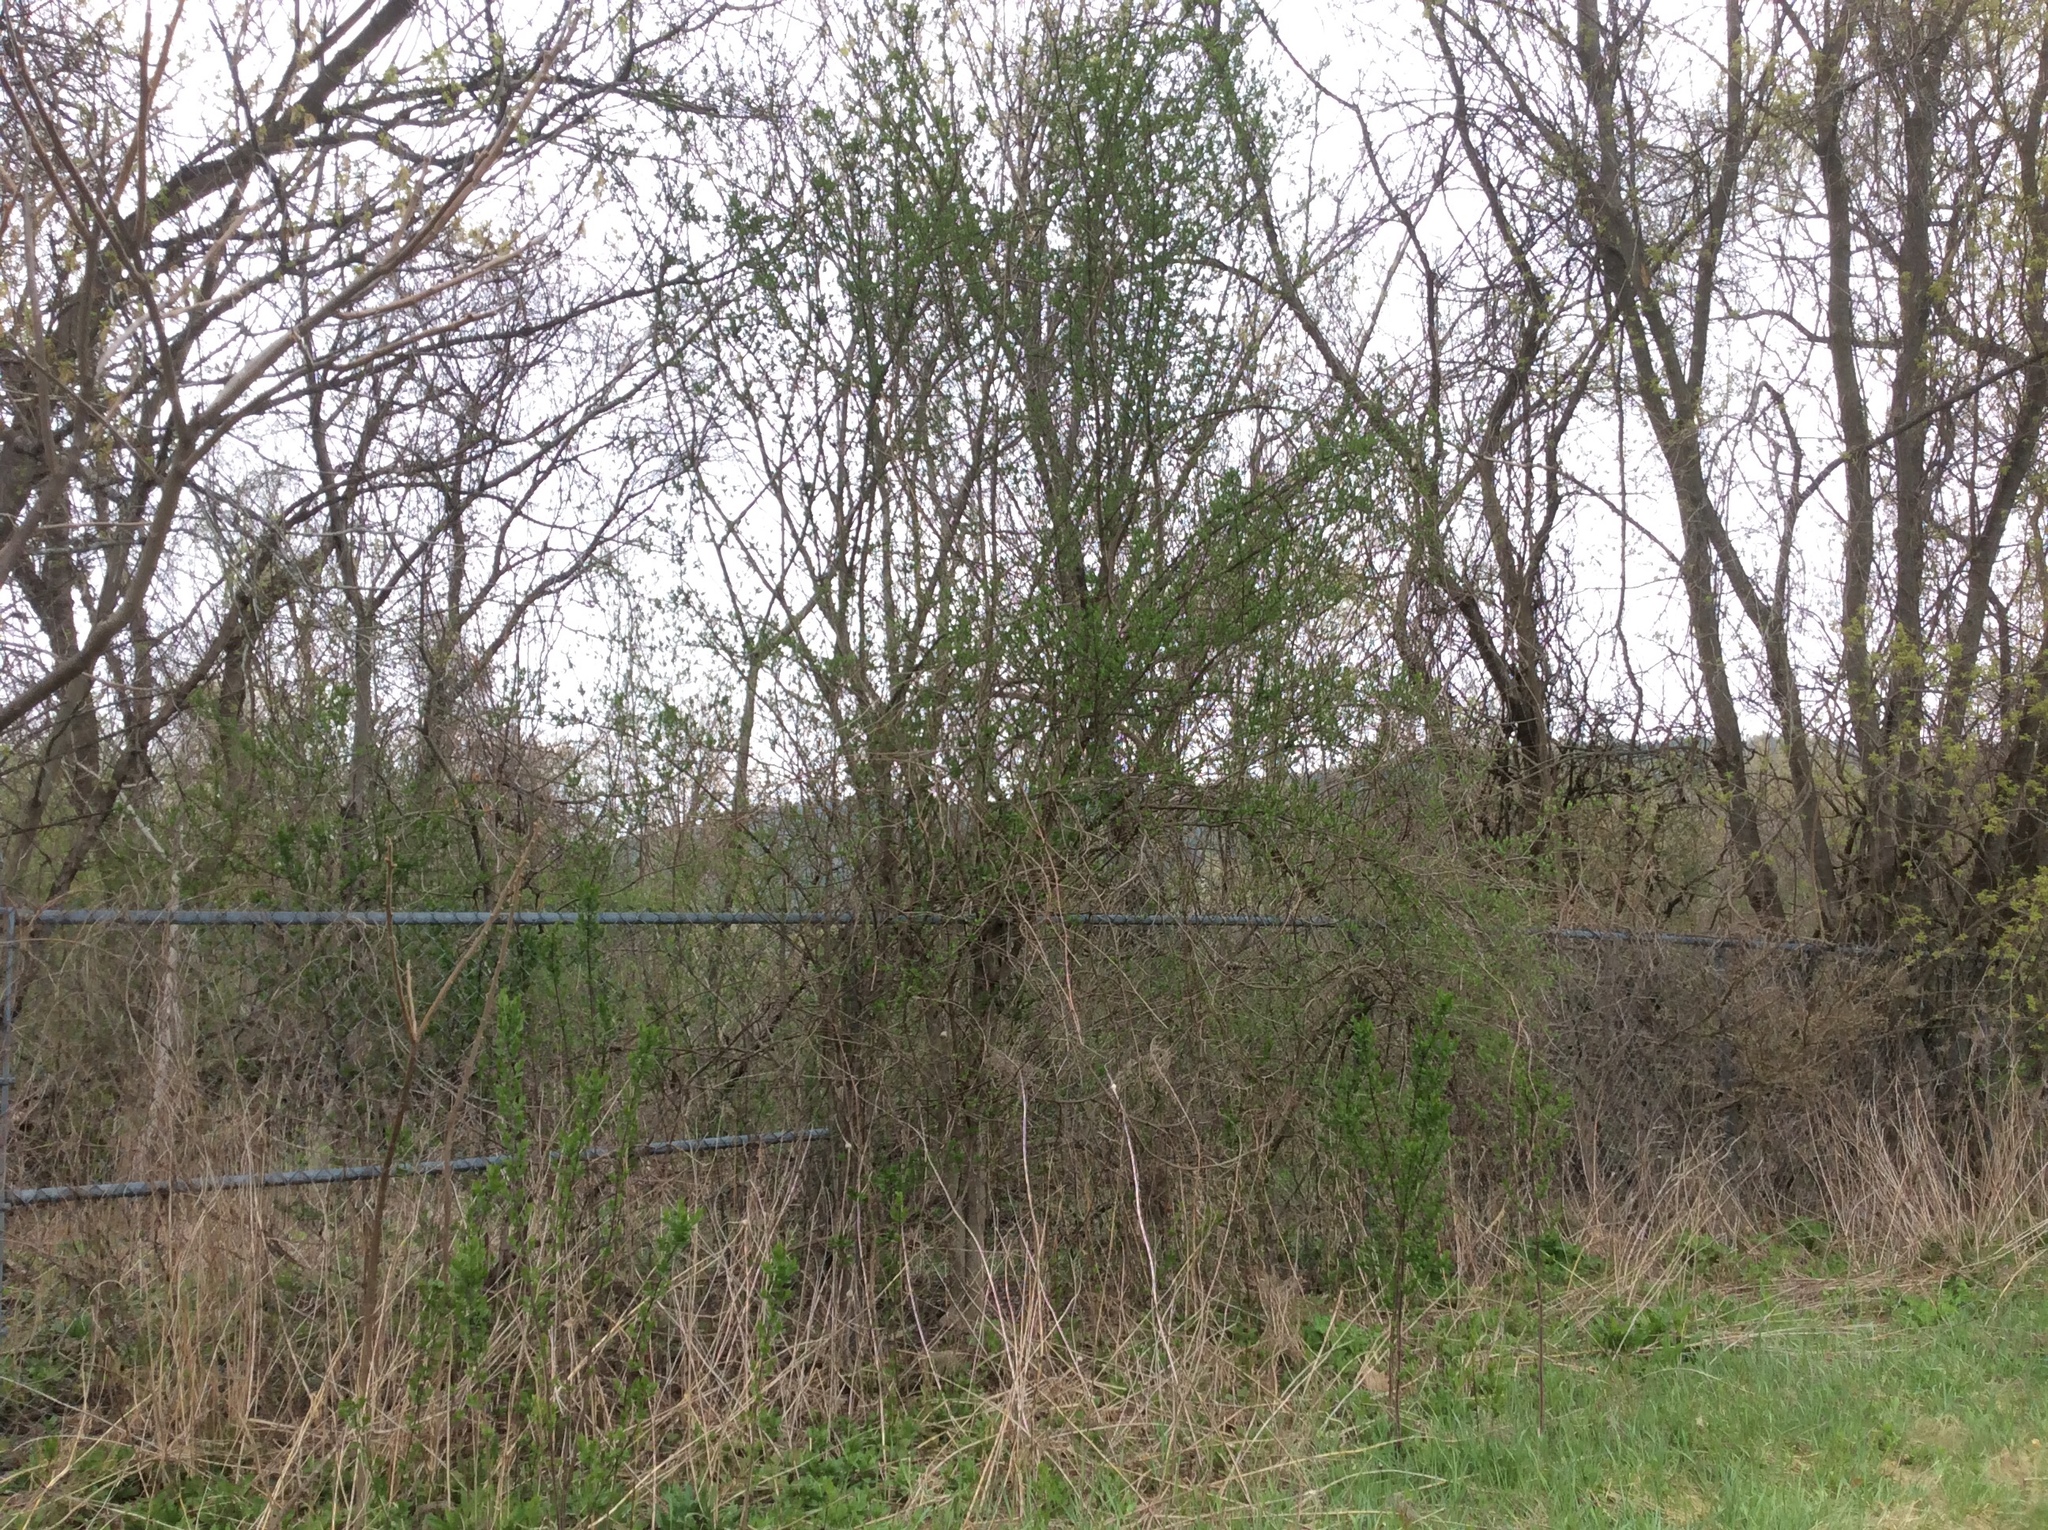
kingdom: Plantae
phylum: Tracheophyta
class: Magnoliopsida
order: Celastrales
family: Celastraceae
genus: Euonymus
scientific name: Euonymus europaeus
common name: Spindle
